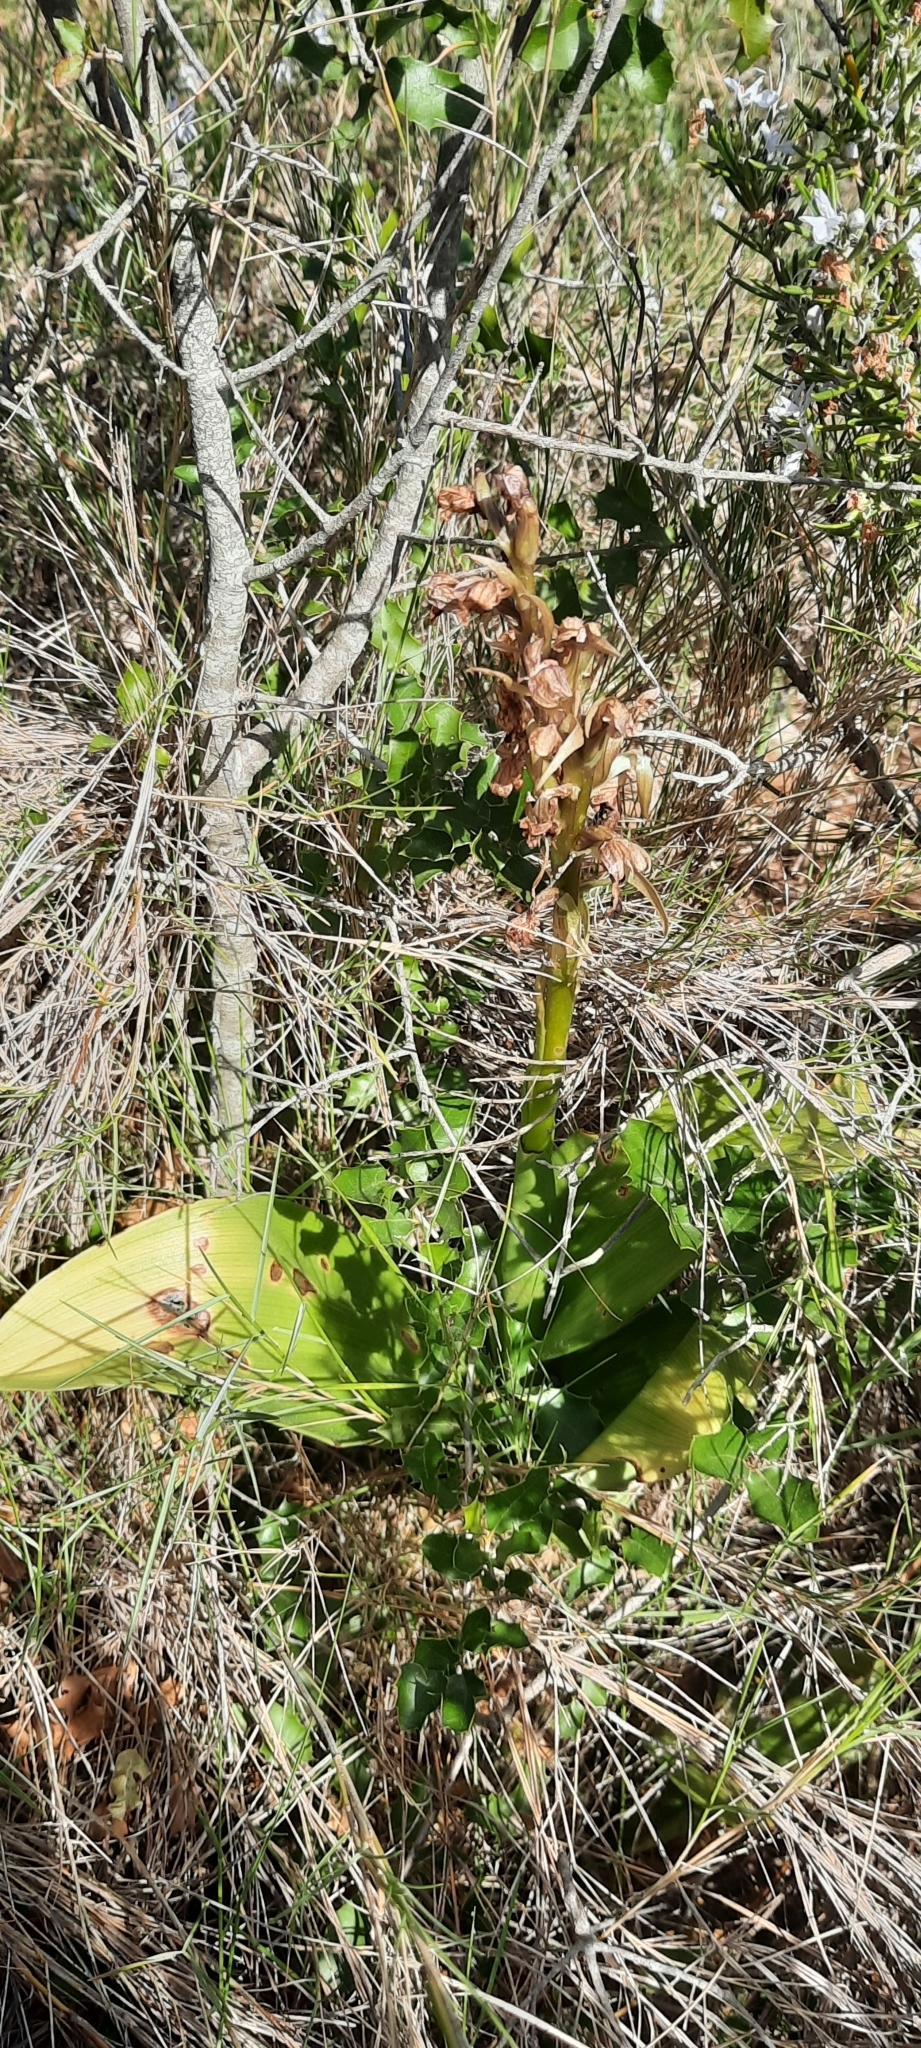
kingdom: Plantae
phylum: Tracheophyta
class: Liliopsida
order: Asparagales
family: Orchidaceae
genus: Himantoglossum
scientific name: Himantoglossum robertianum
